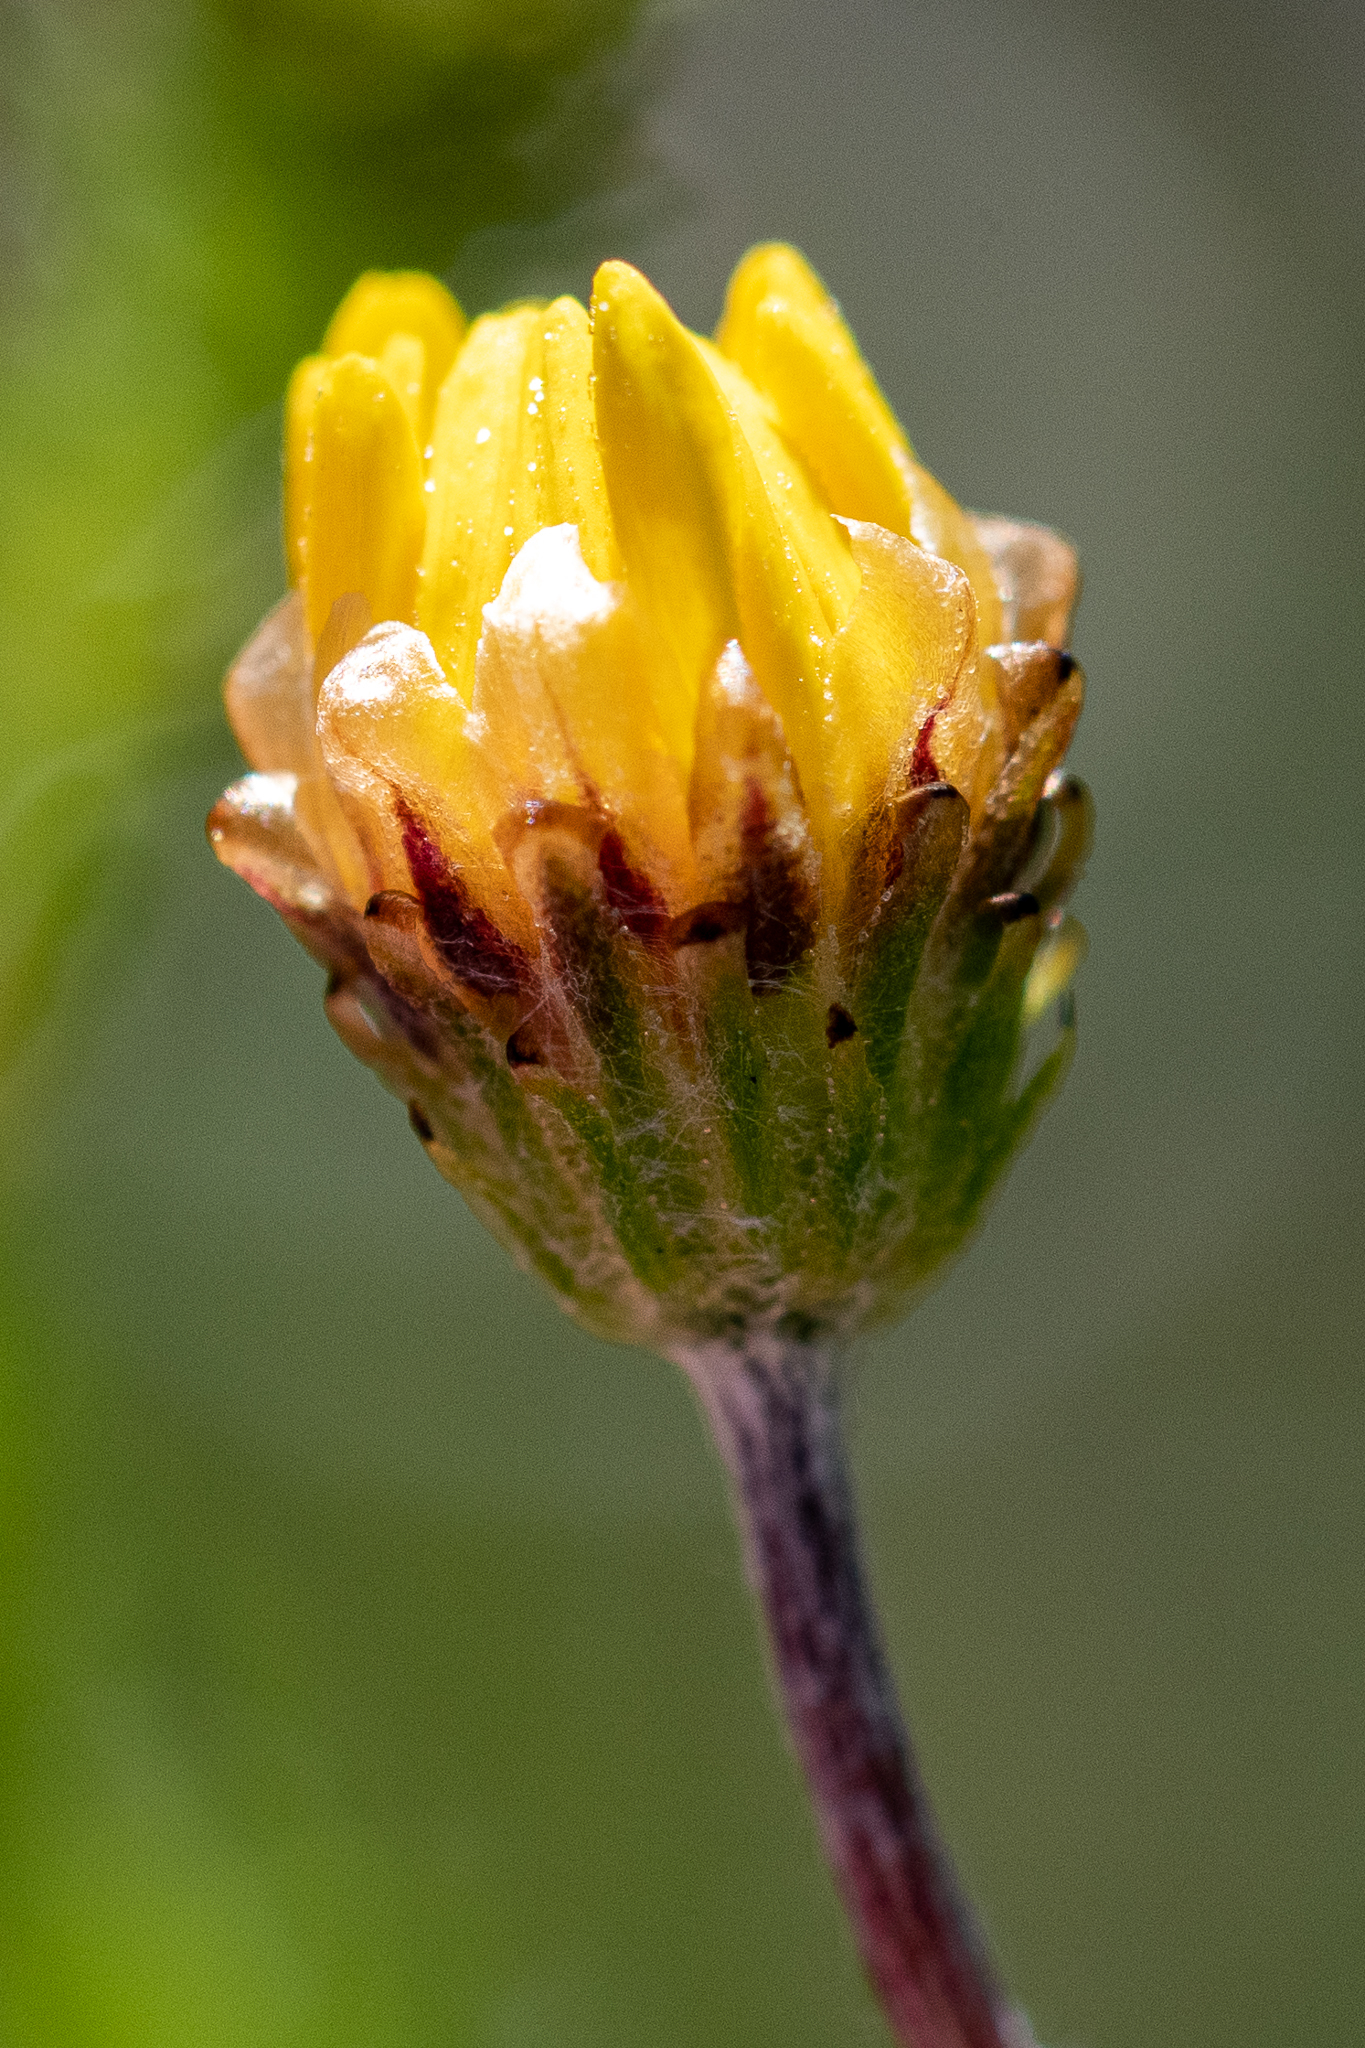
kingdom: Plantae
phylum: Tracheophyta
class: Magnoliopsida
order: Asterales
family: Asteraceae
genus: Ursinia
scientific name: Ursinia trifida
